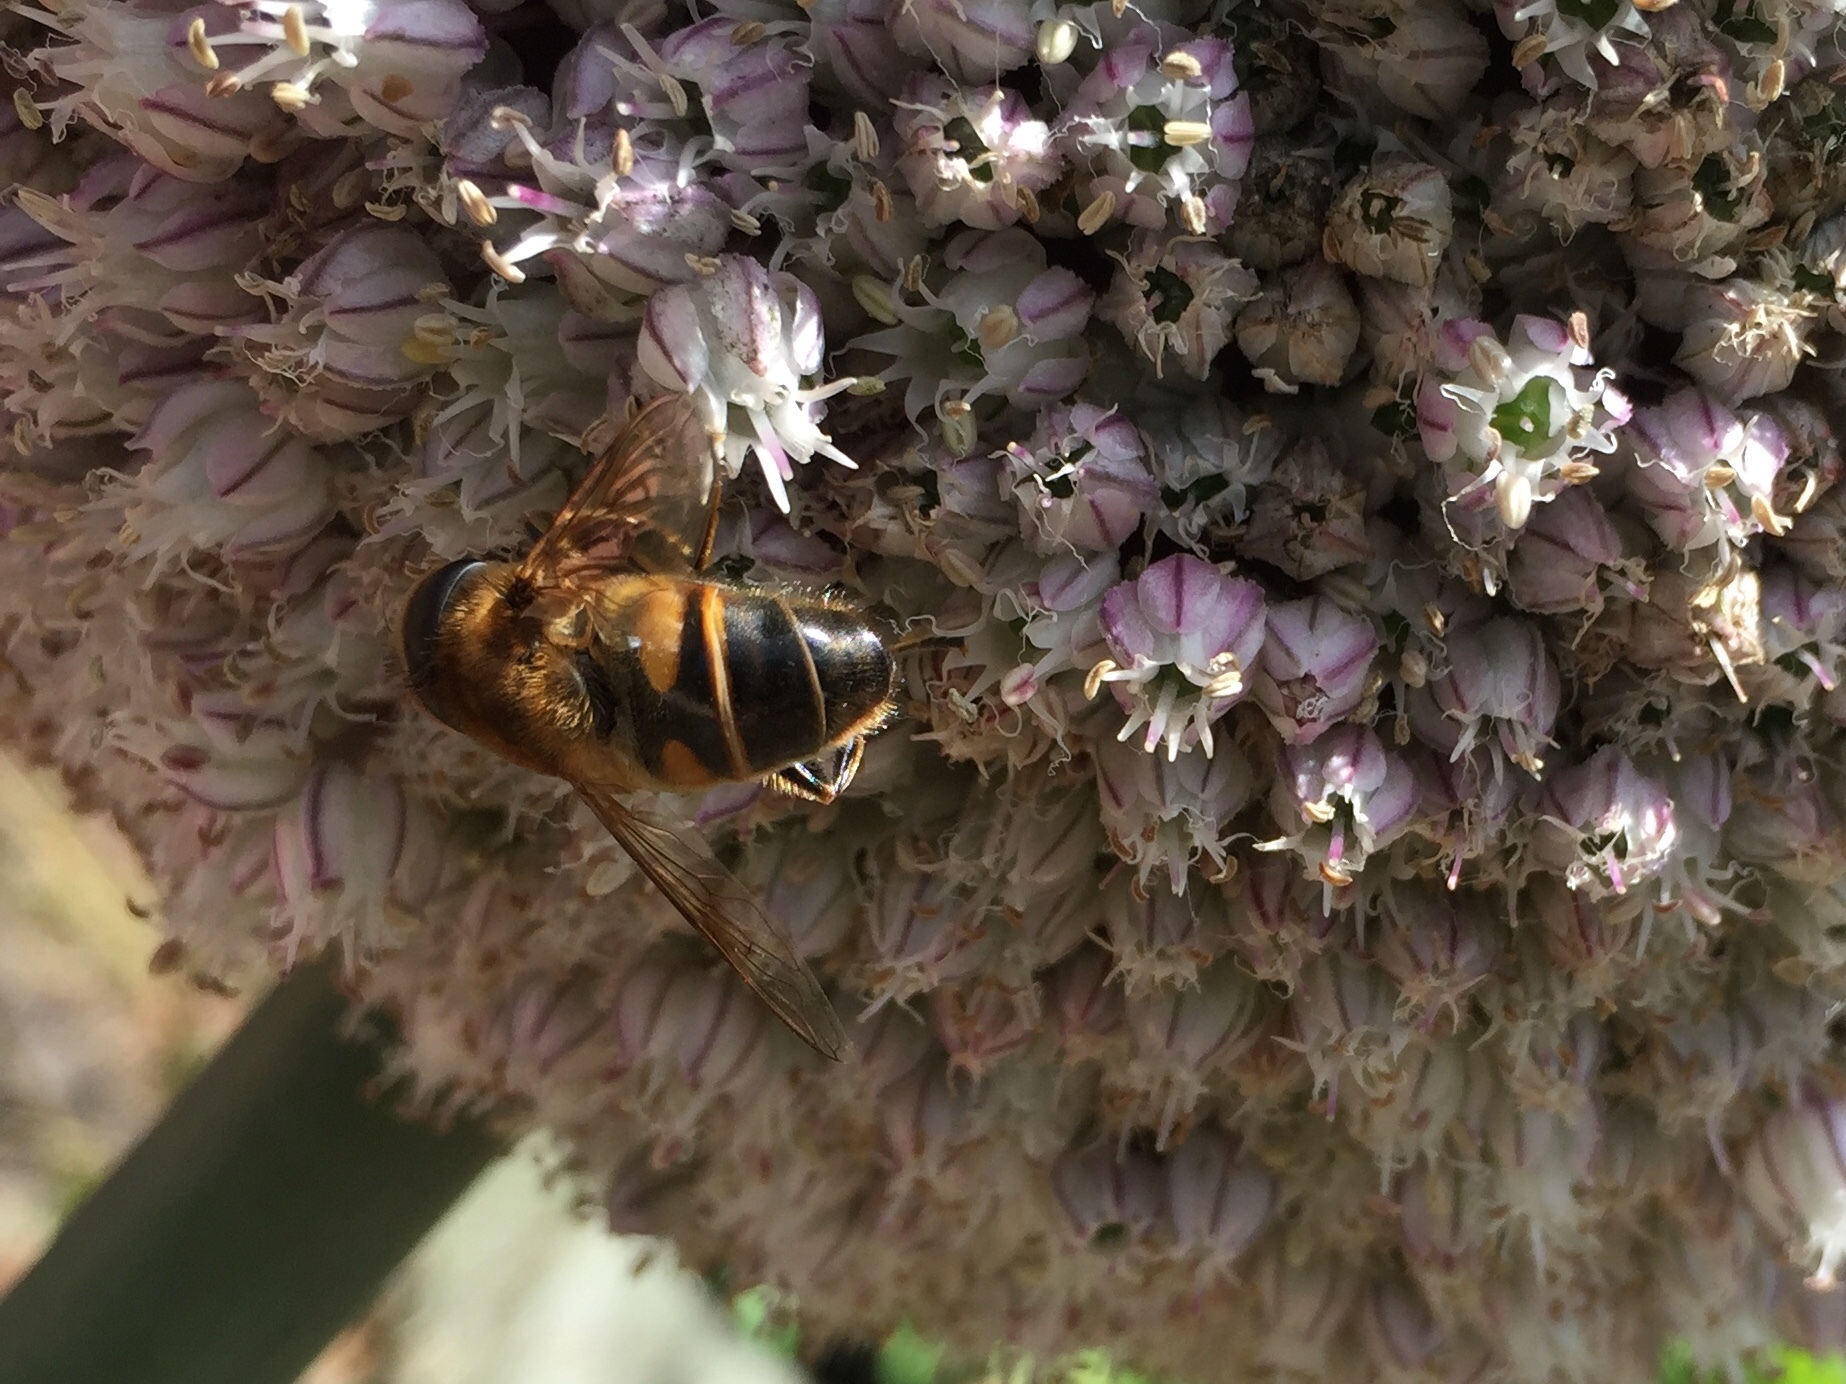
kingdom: Animalia
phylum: Arthropoda
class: Insecta
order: Diptera
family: Syrphidae
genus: Eristalis
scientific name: Eristalis tenax
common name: Drone fly
